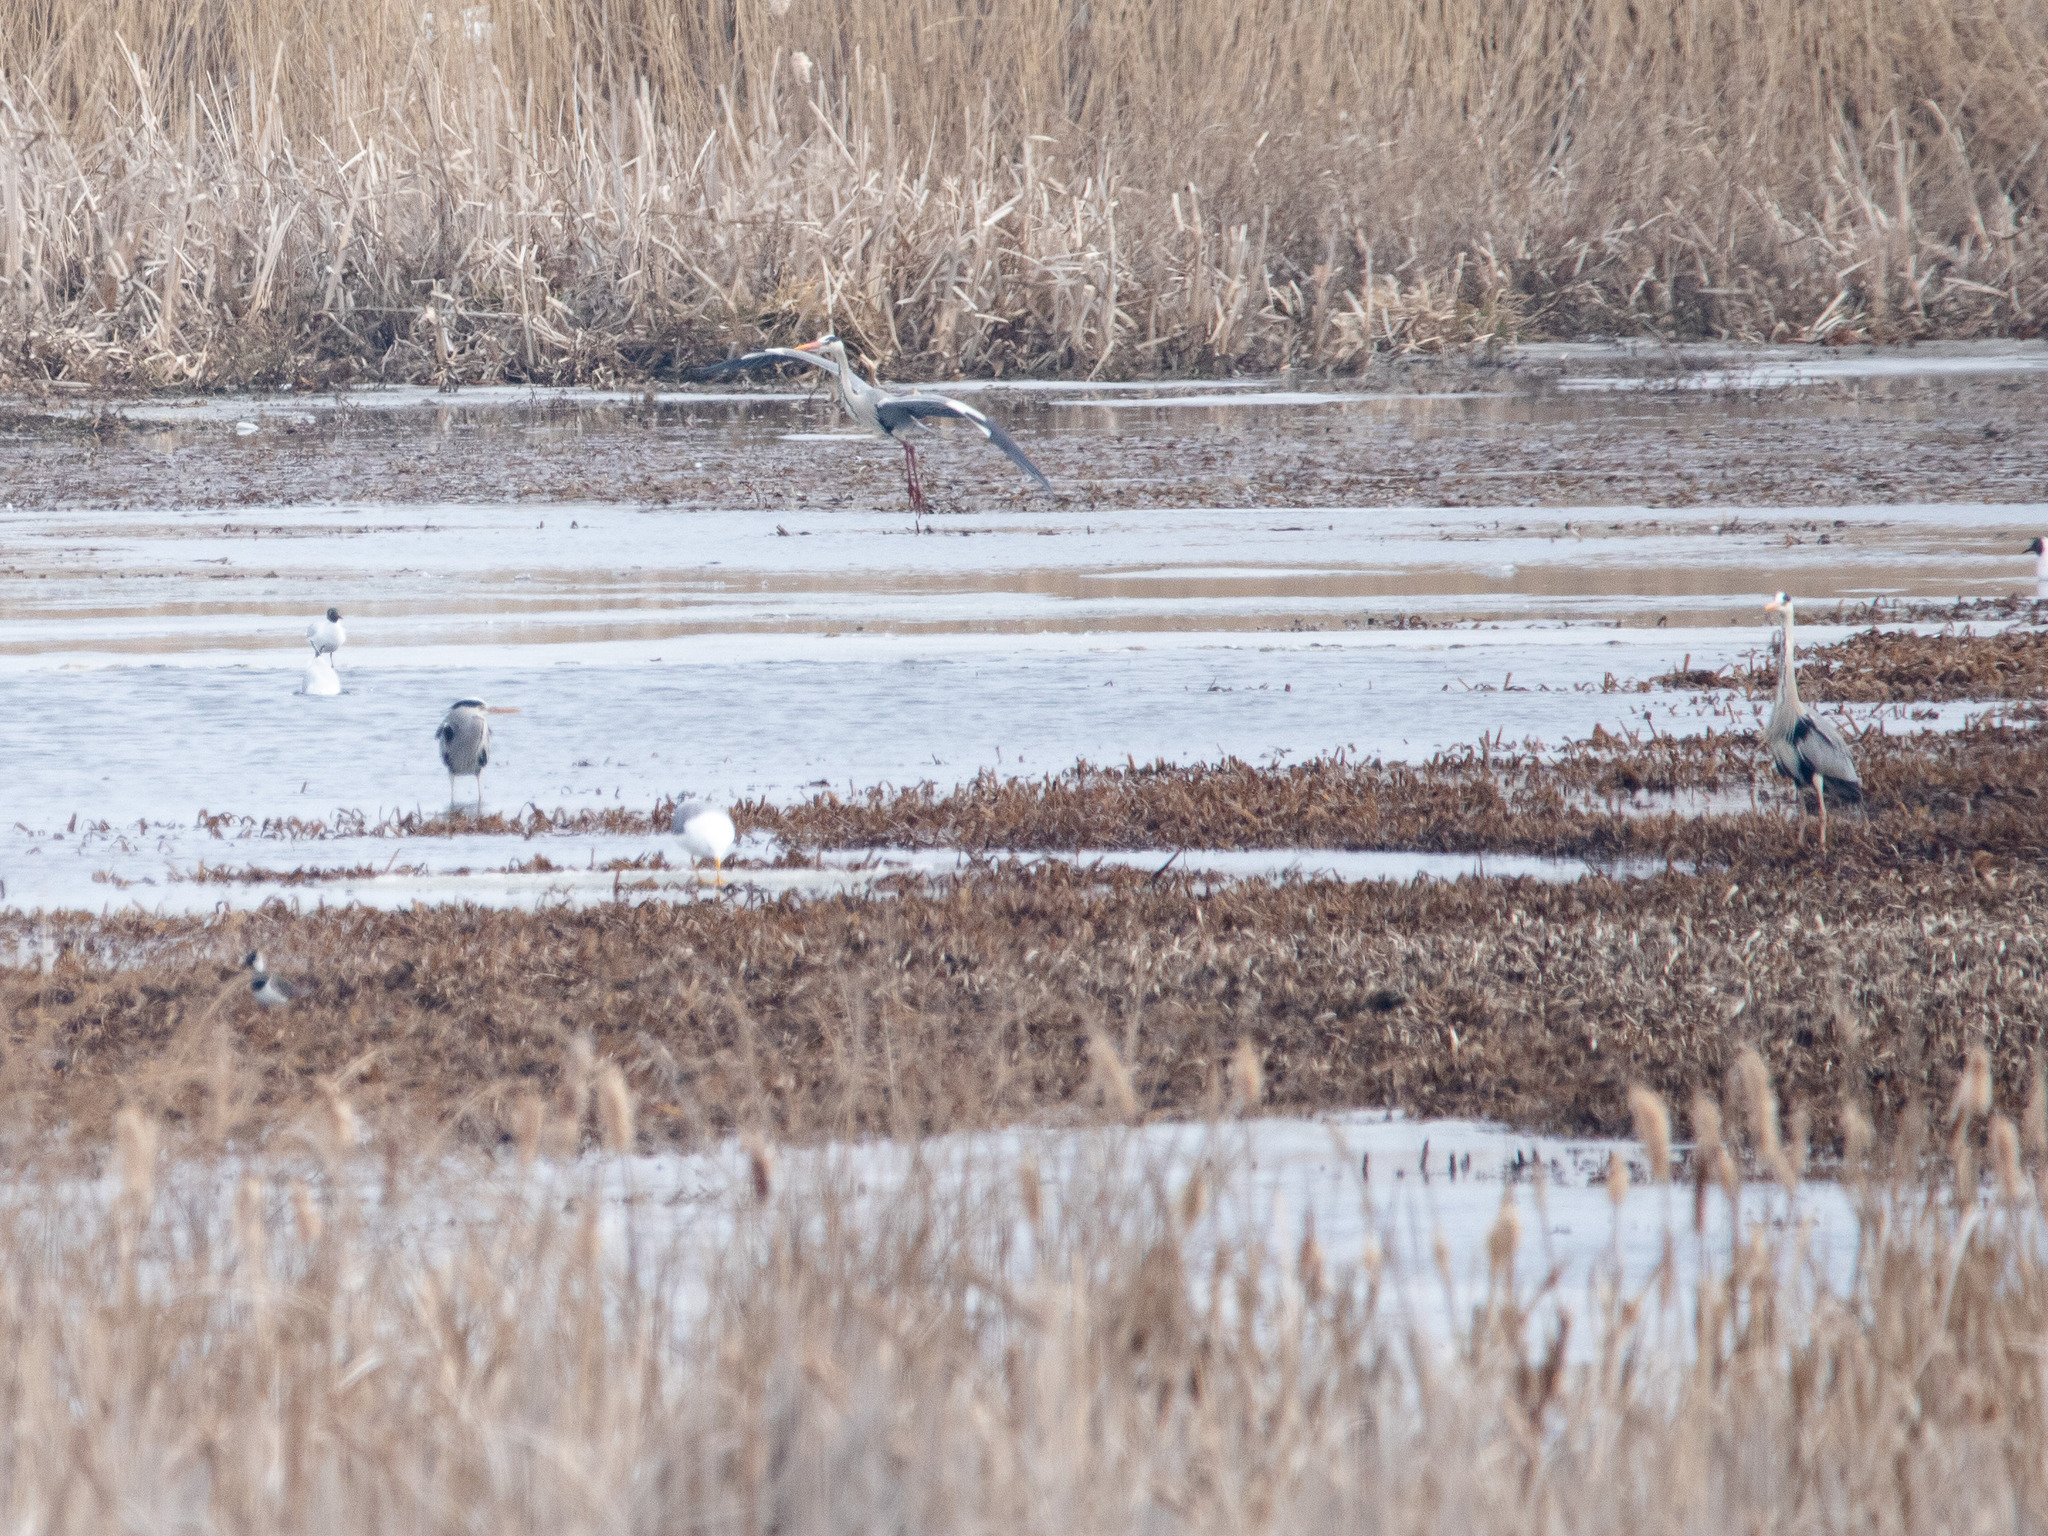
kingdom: Animalia
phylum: Chordata
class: Aves
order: Pelecaniformes
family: Ardeidae
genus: Ardea
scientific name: Ardea cinerea
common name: Grey heron
